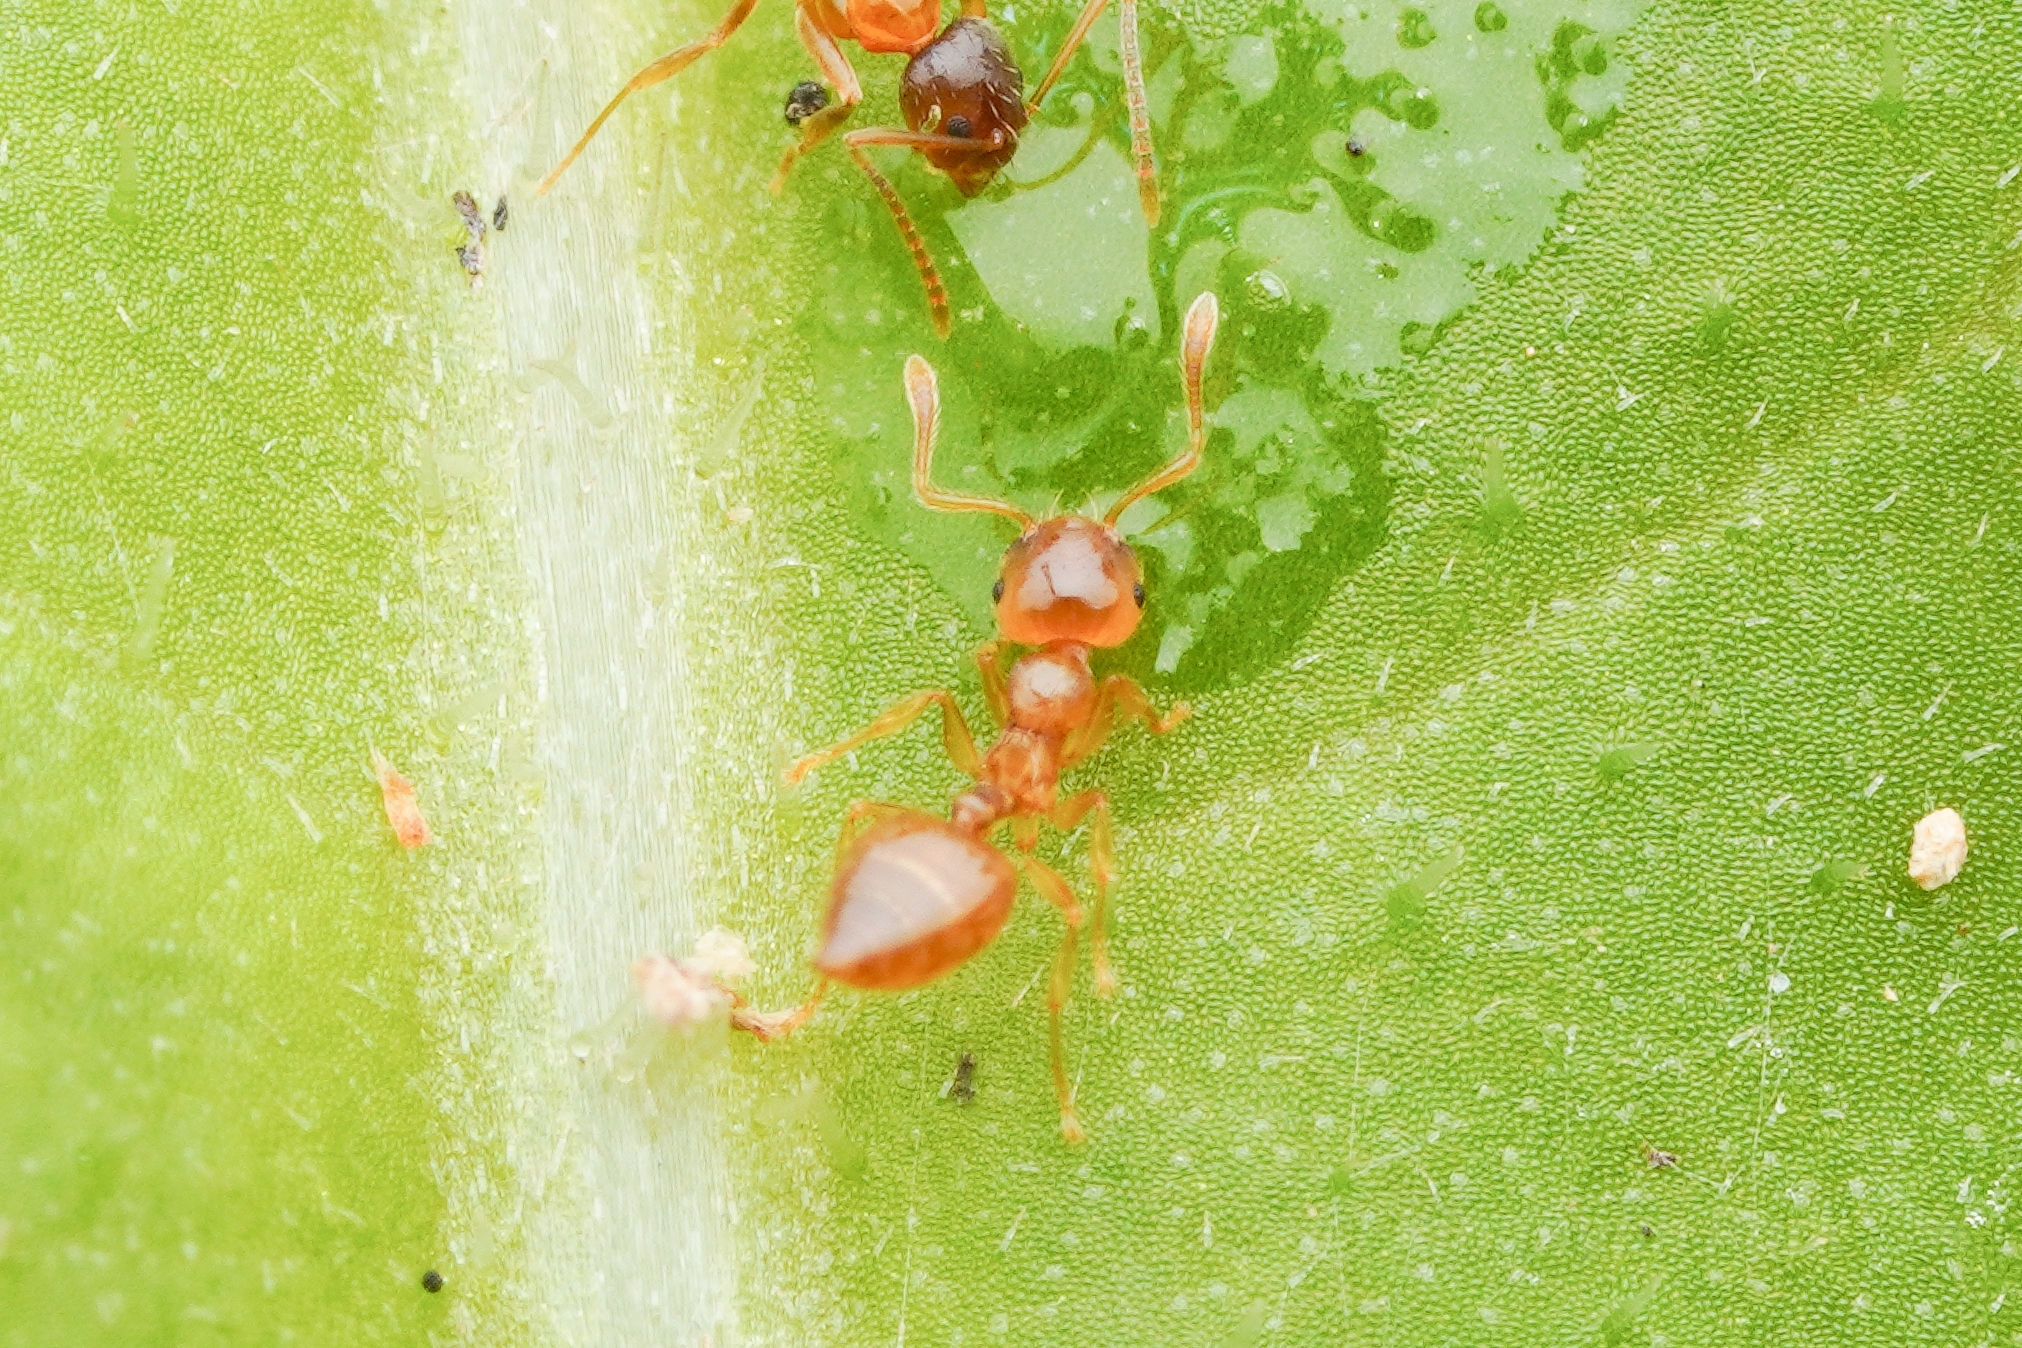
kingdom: Animalia
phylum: Arthropoda
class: Insecta
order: Hymenoptera
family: Formicidae
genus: Crematogaster
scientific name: Crematogaster osakensis
